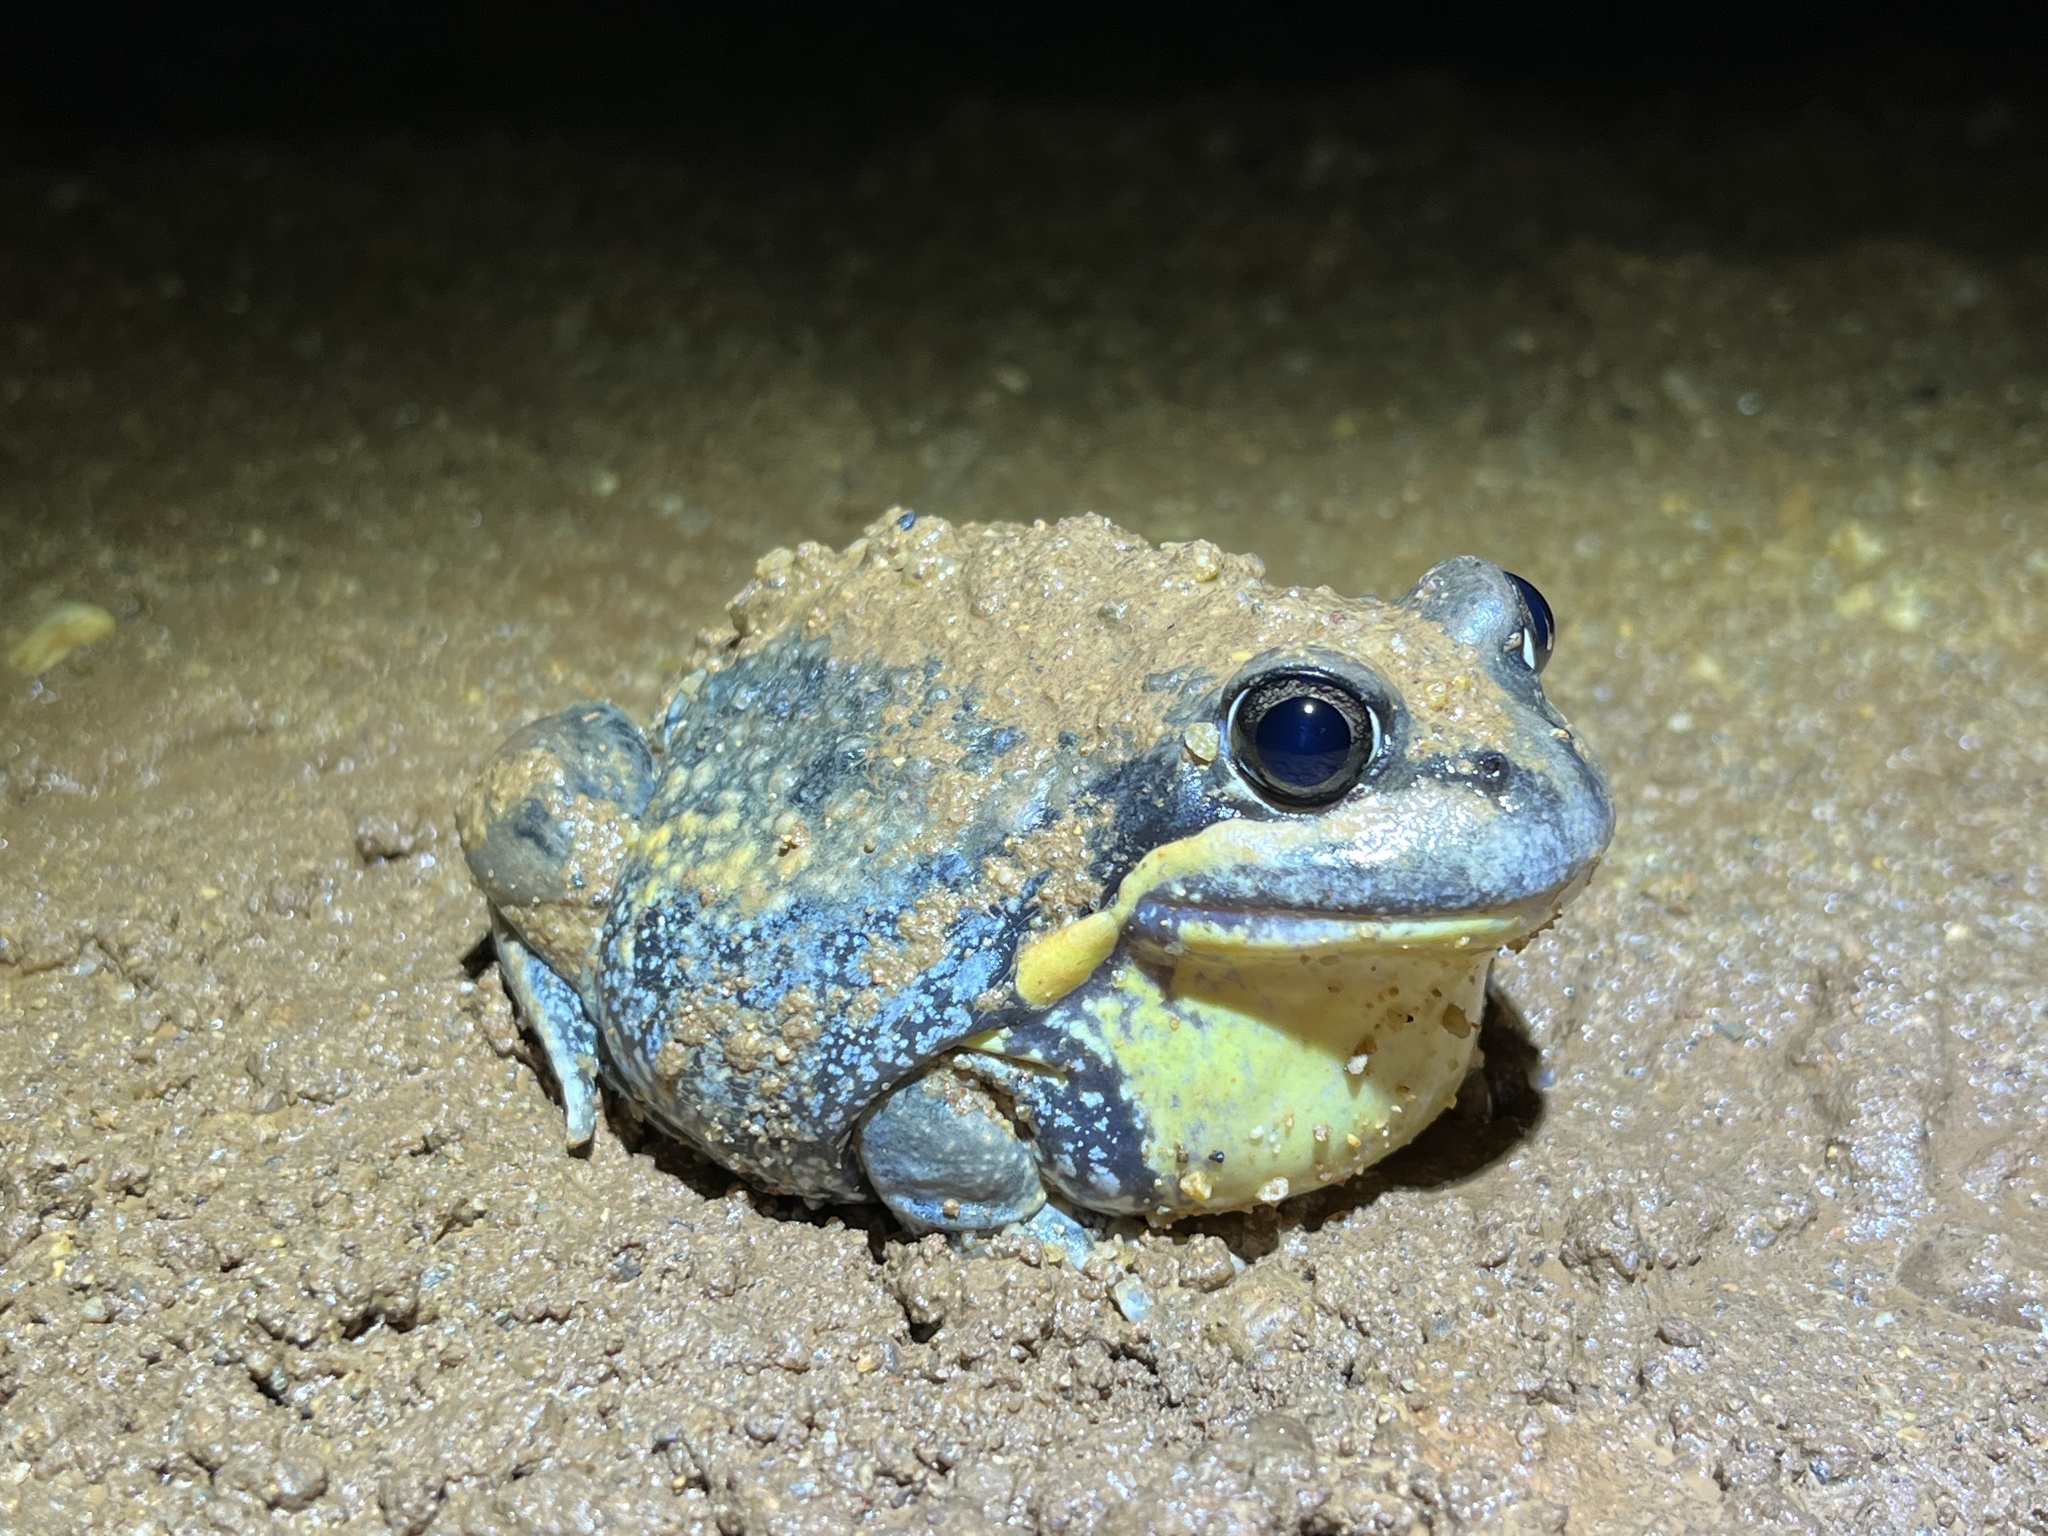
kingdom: Animalia
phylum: Chordata
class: Amphibia
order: Anura
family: Limnodynastidae
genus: Limnodynastes
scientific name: Limnodynastes interioris
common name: Giant banjo frog
